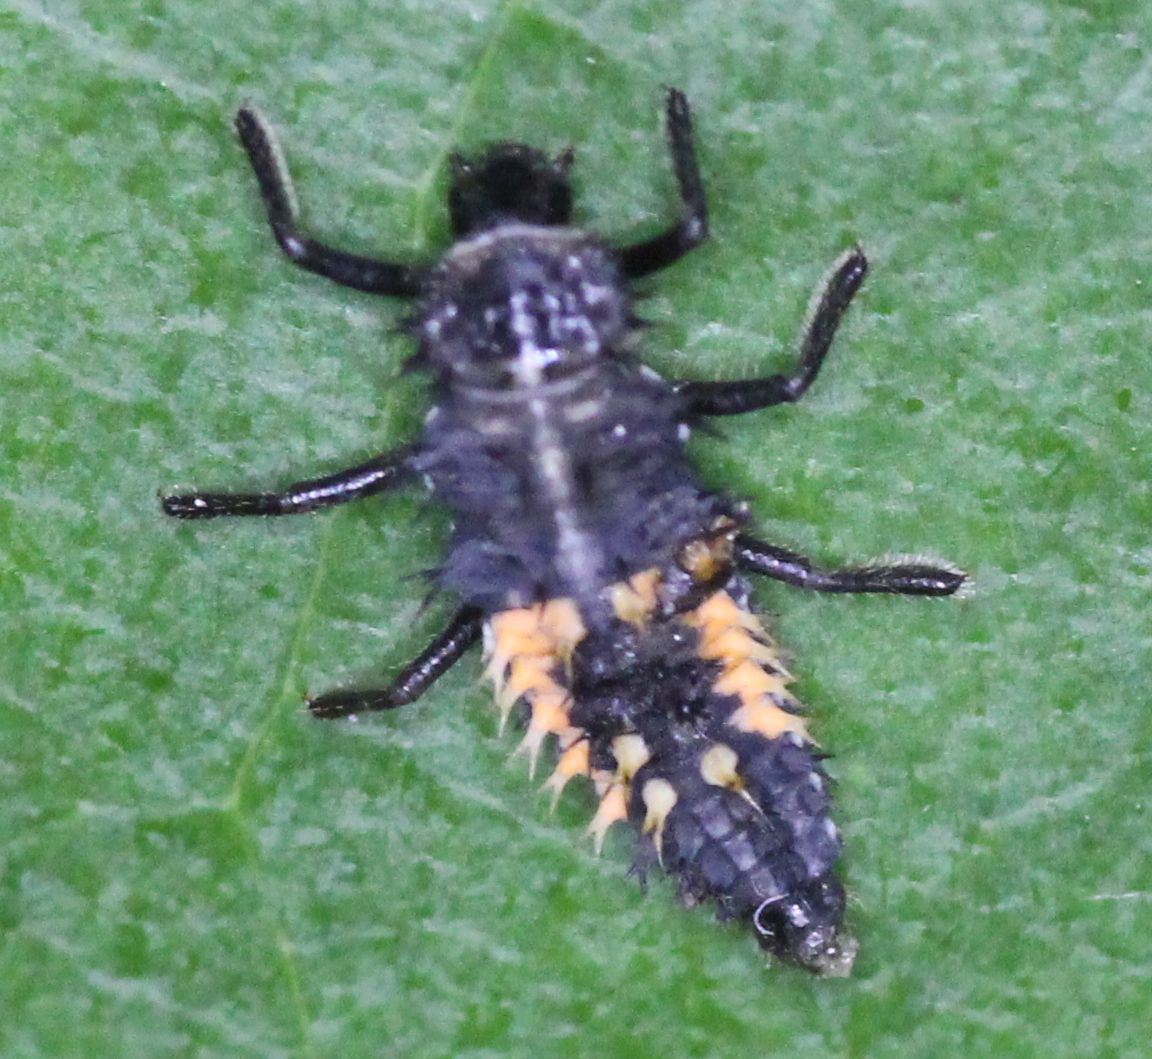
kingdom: Animalia
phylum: Arthropoda
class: Insecta
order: Coleoptera
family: Coccinellidae
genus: Harmonia
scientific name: Harmonia axyridis
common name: Harlequin ladybird
